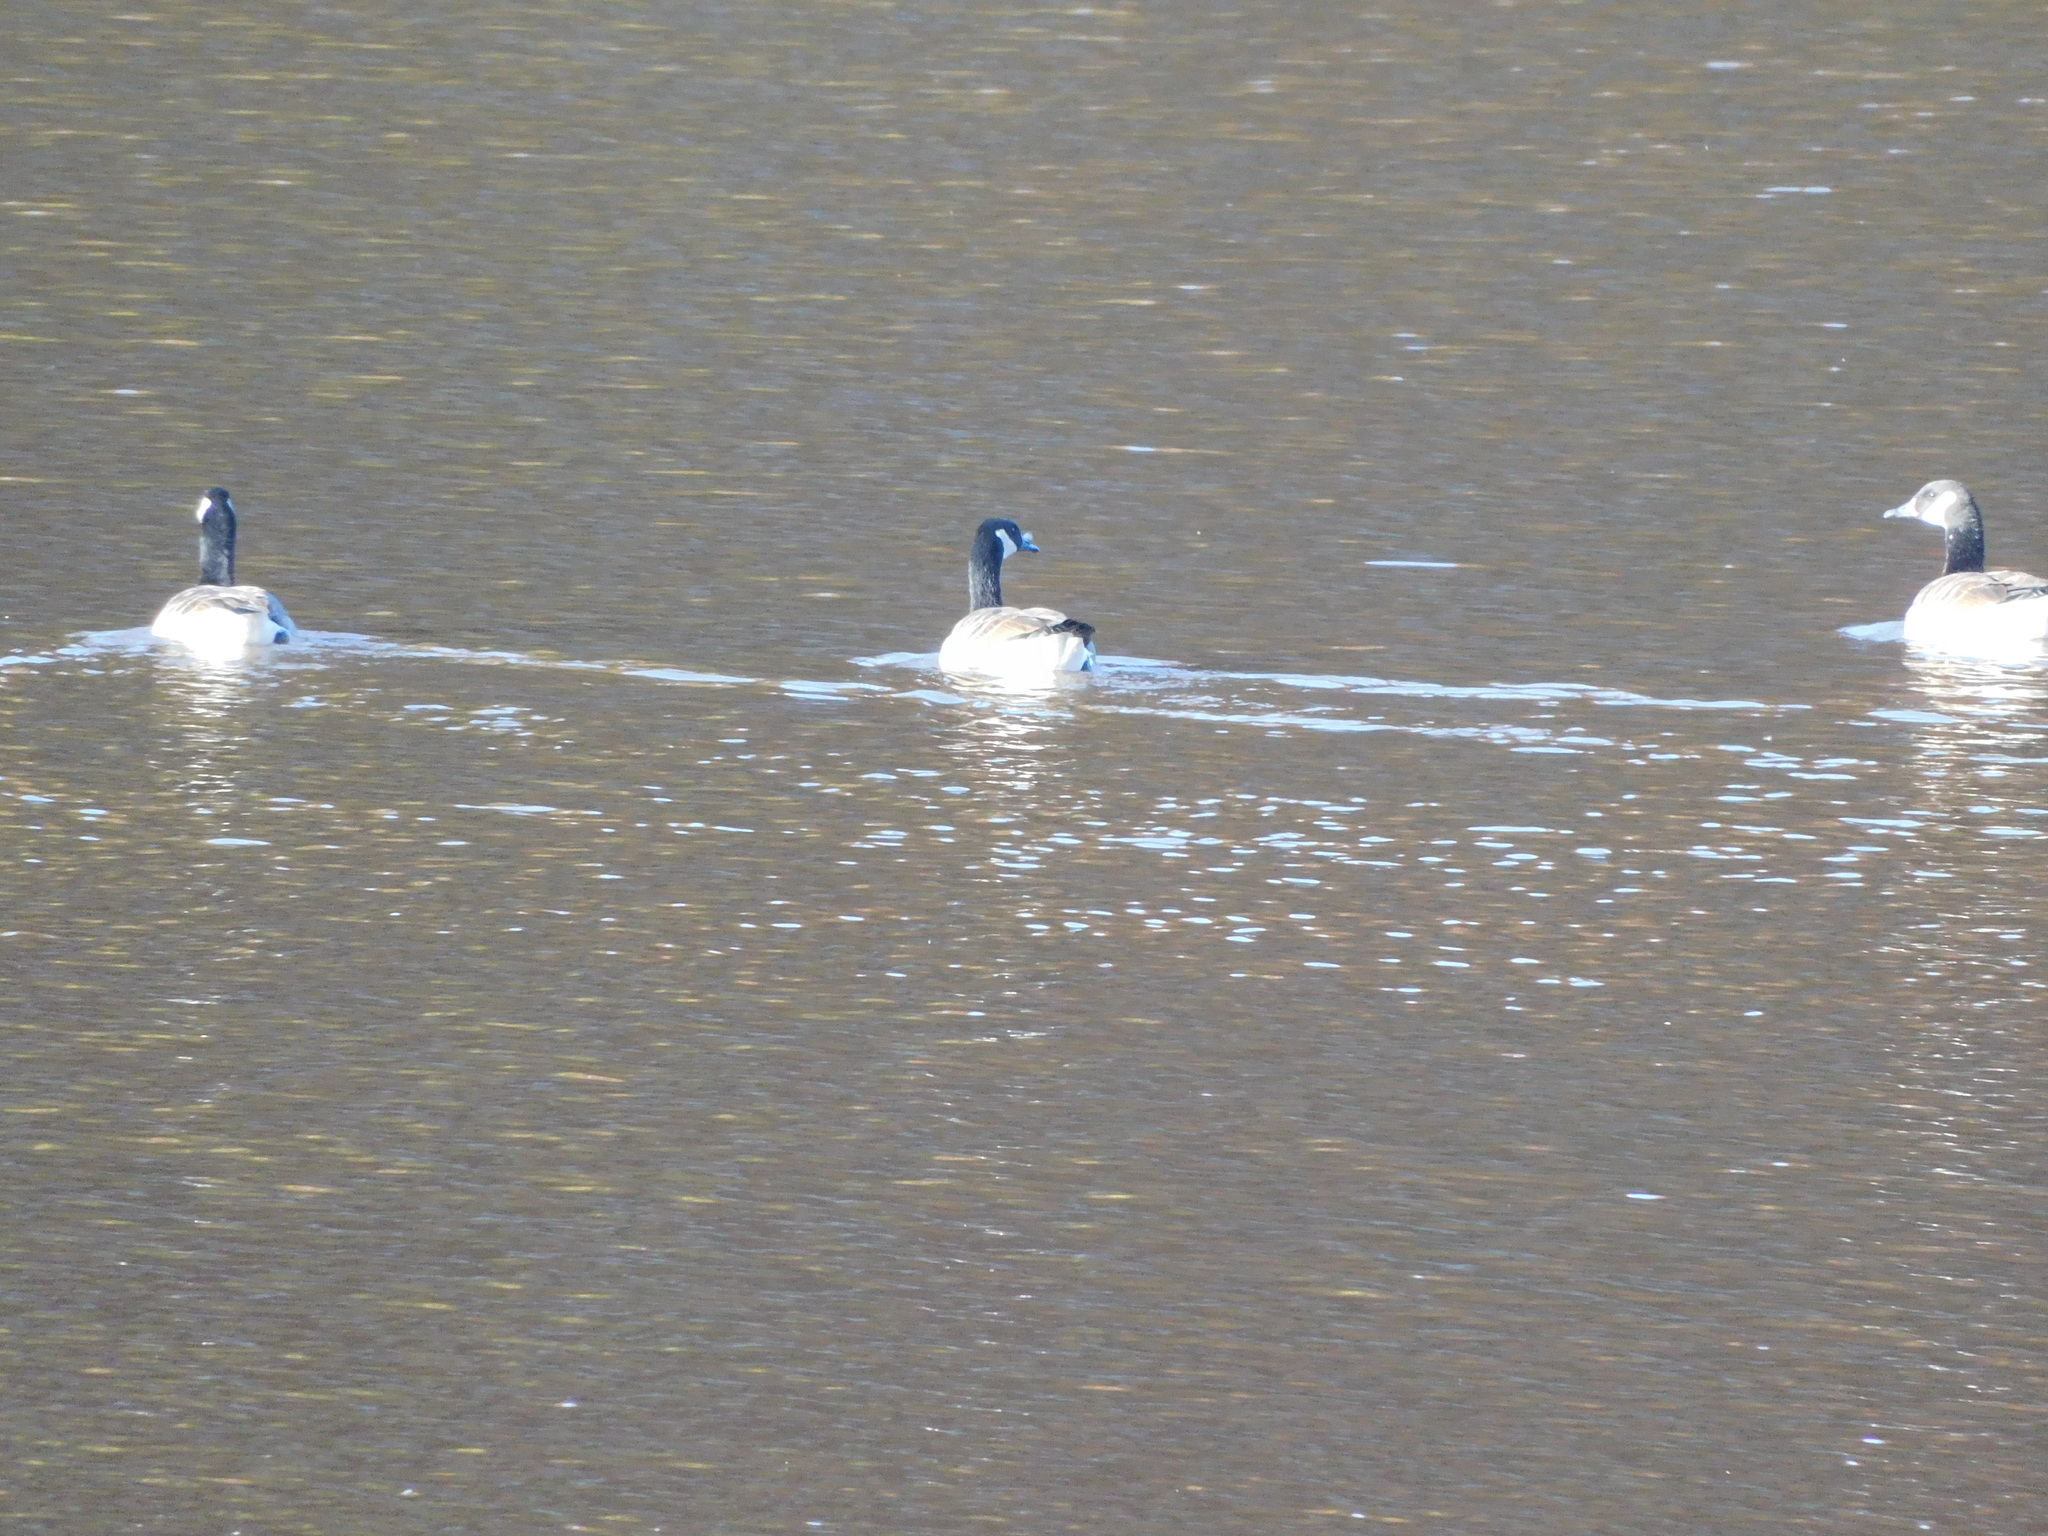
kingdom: Animalia
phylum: Chordata
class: Aves
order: Anseriformes
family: Anatidae
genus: Branta
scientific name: Branta canadensis
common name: Canada goose
